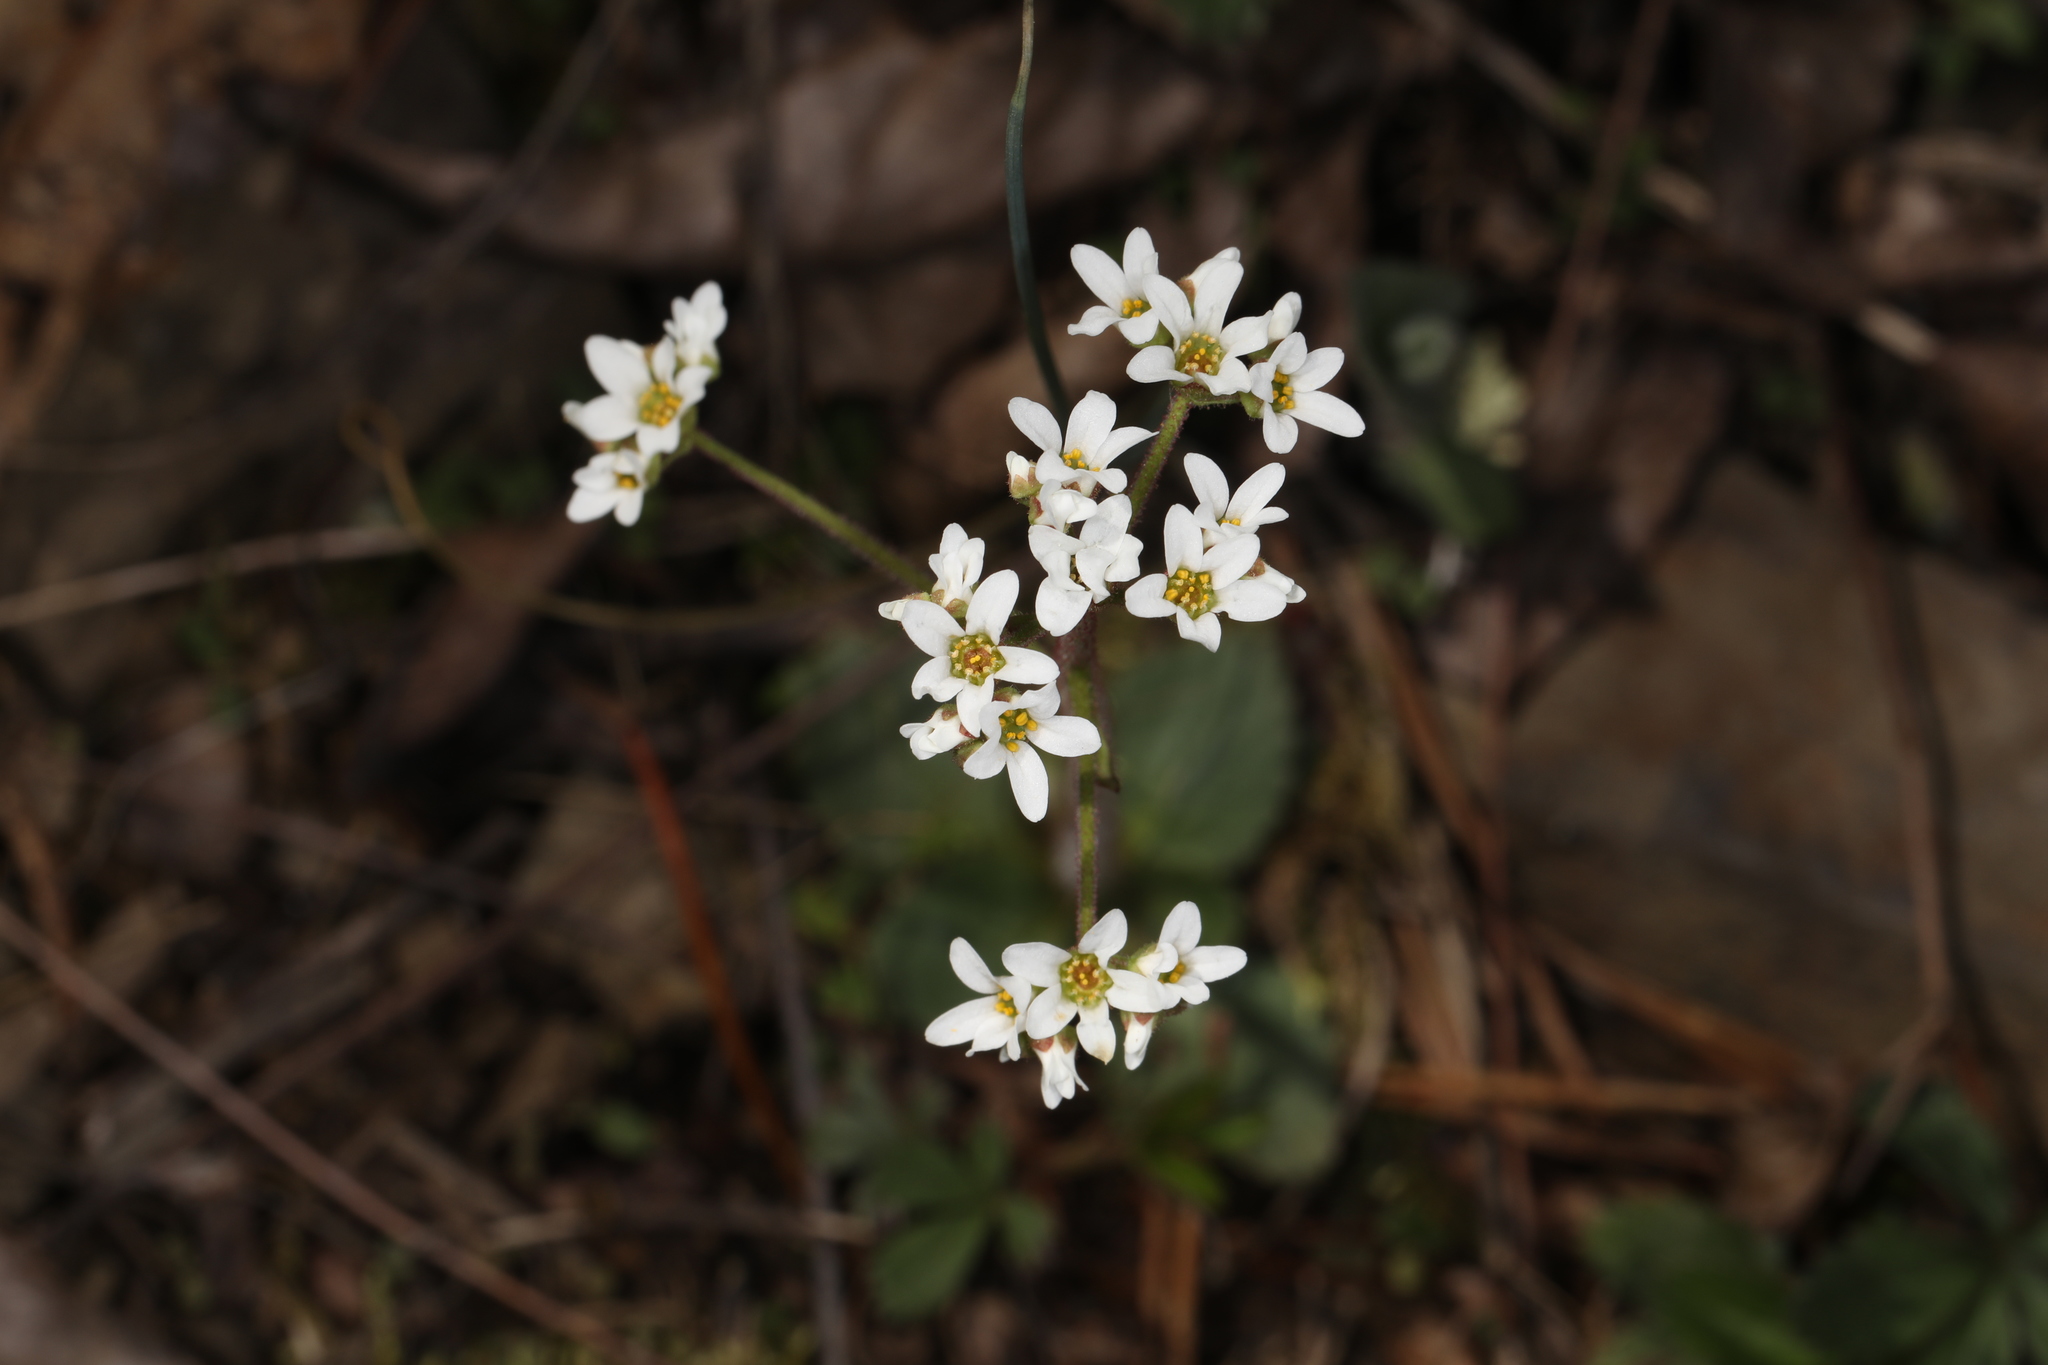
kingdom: Plantae
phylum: Tracheophyta
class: Magnoliopsida
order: Saxifragales
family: Saxifragaceae
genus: Micranthes
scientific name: Micranthes virginiensis
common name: Early saxifrage
